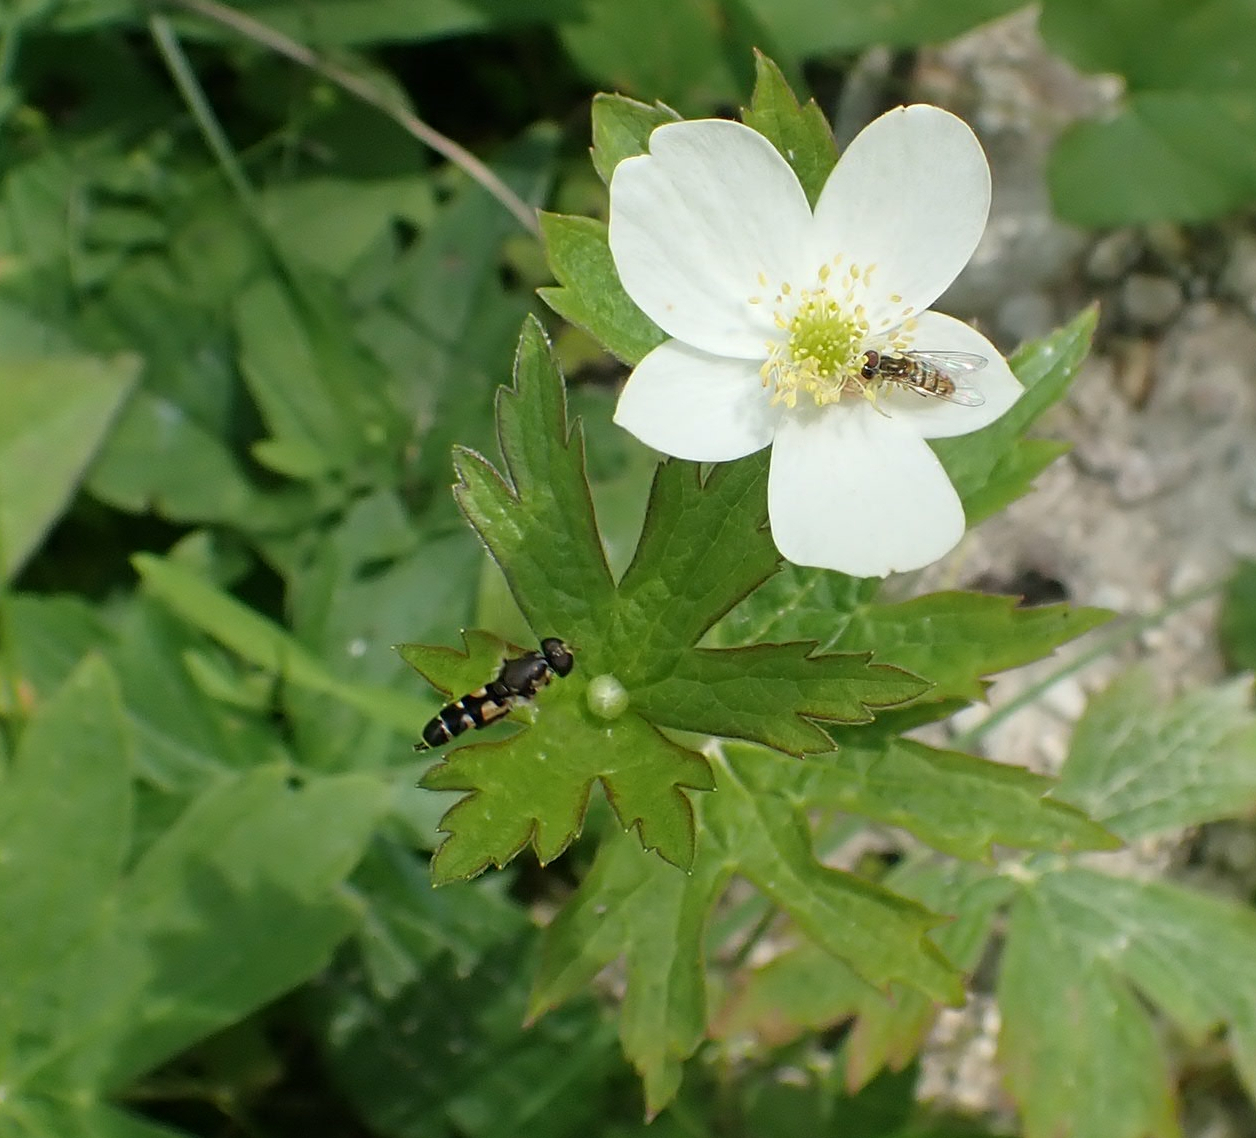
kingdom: Plantae
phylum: Tracheophyta
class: Magnoliopsida
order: Ranunculales
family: Ranunculaceae
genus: Anemonastrum
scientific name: Anemonastrum canadense
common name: Canada anemone
